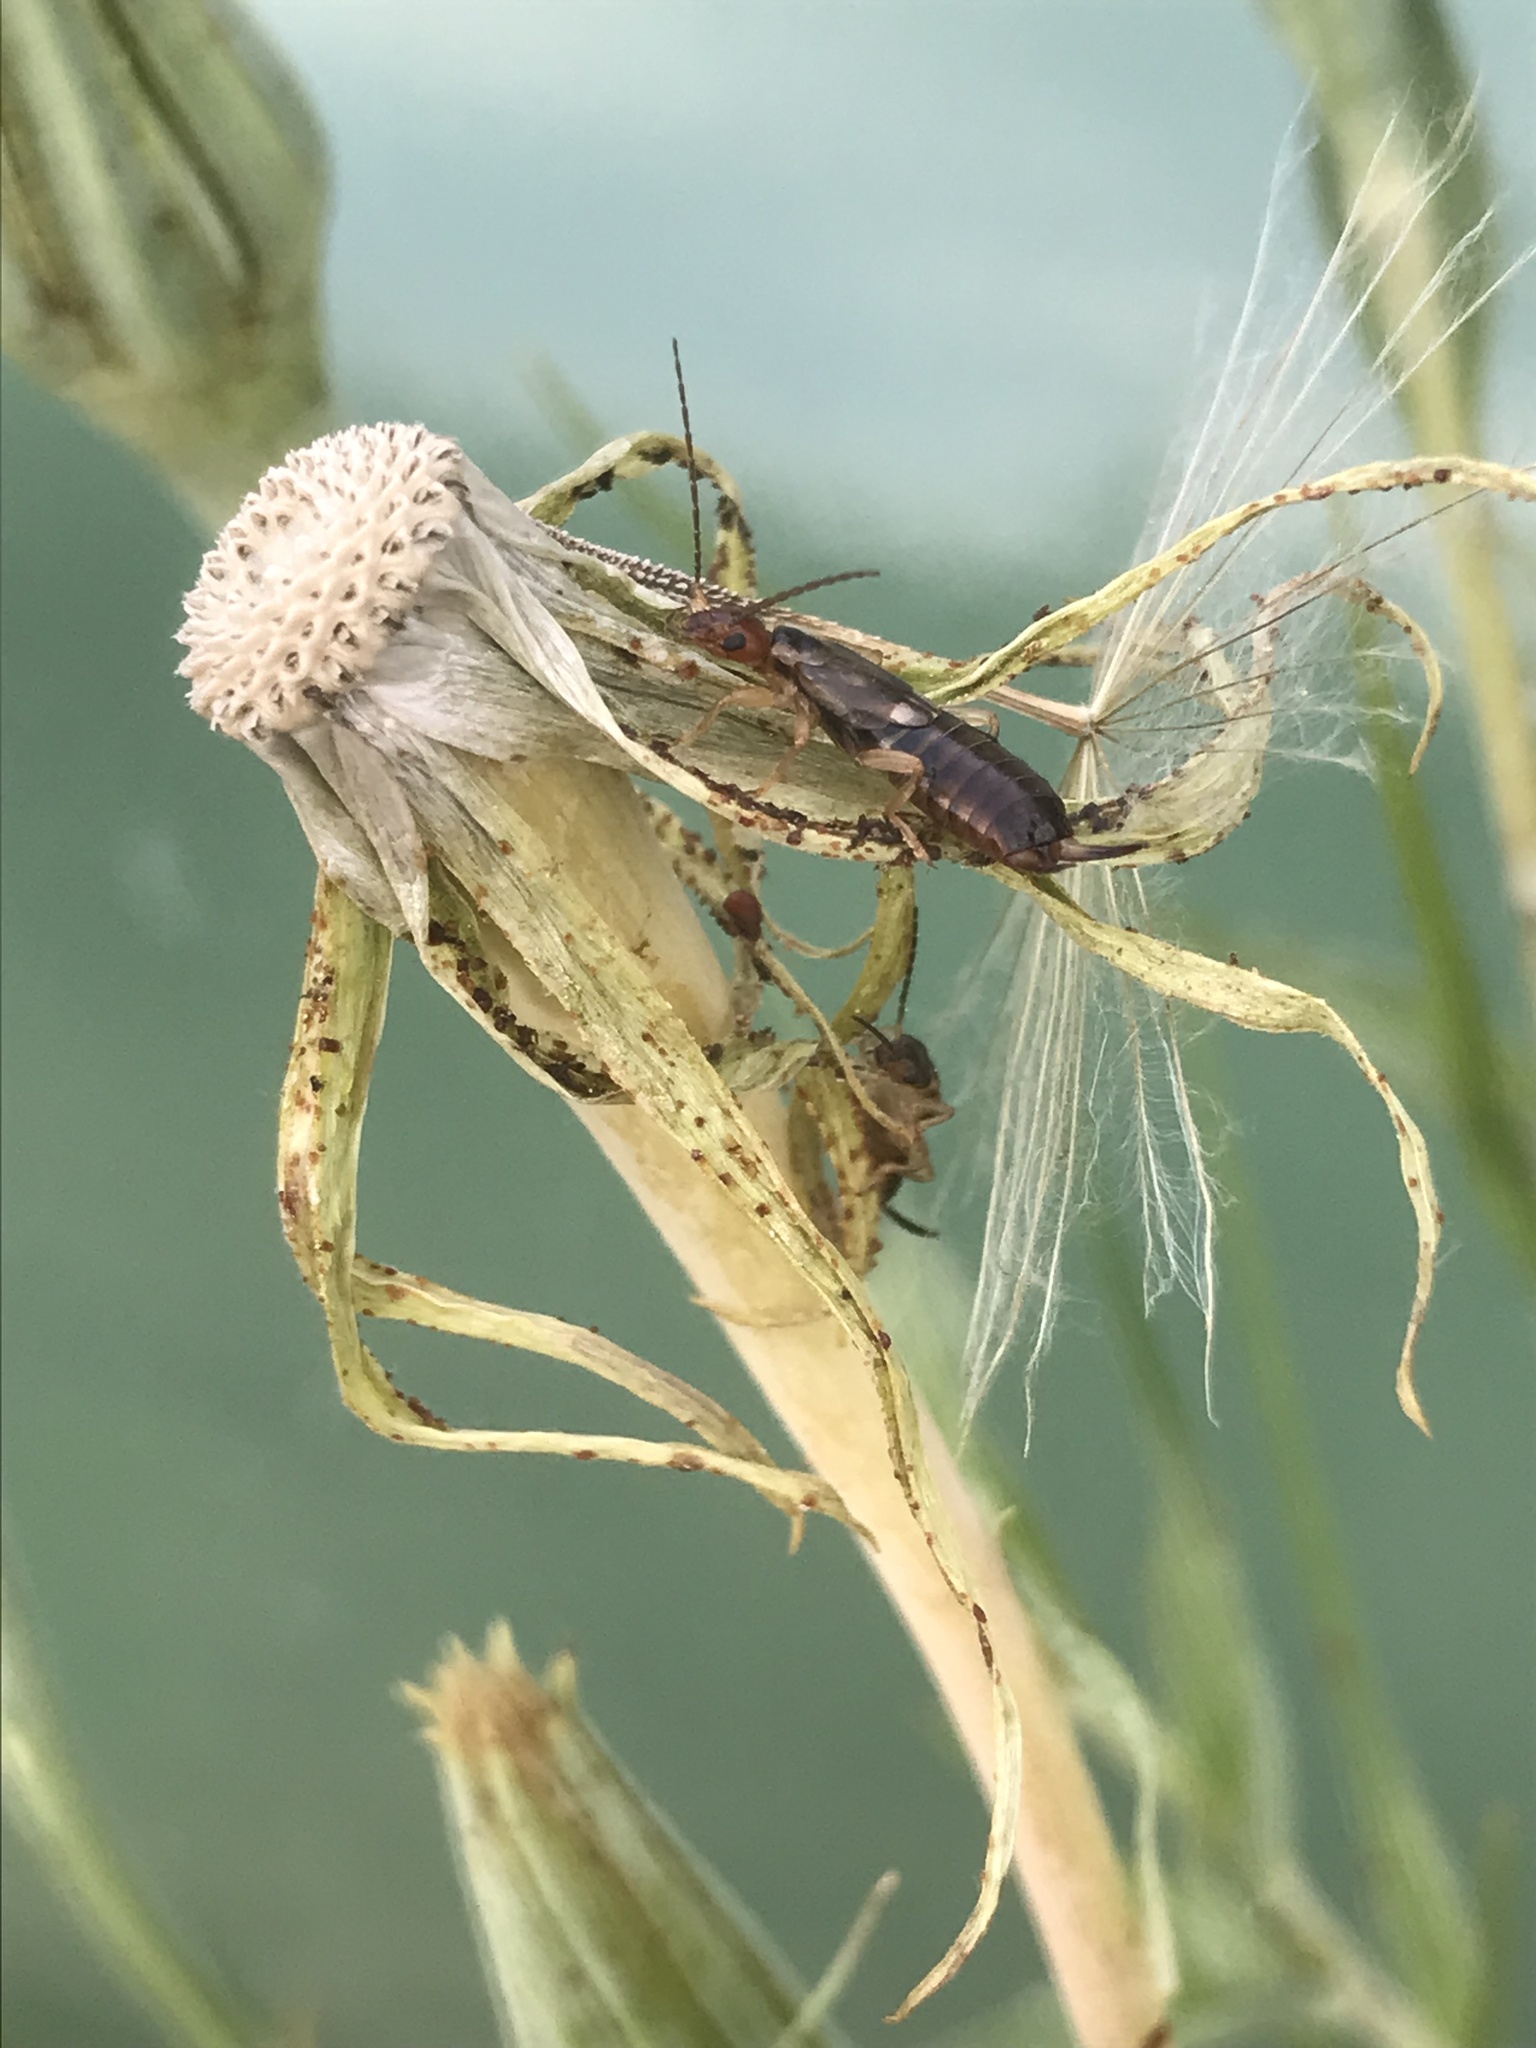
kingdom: Animalia
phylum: Arthropoda
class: Insecta
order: Dermaptera
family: Forficulidae
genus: Forficula
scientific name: Forficula
